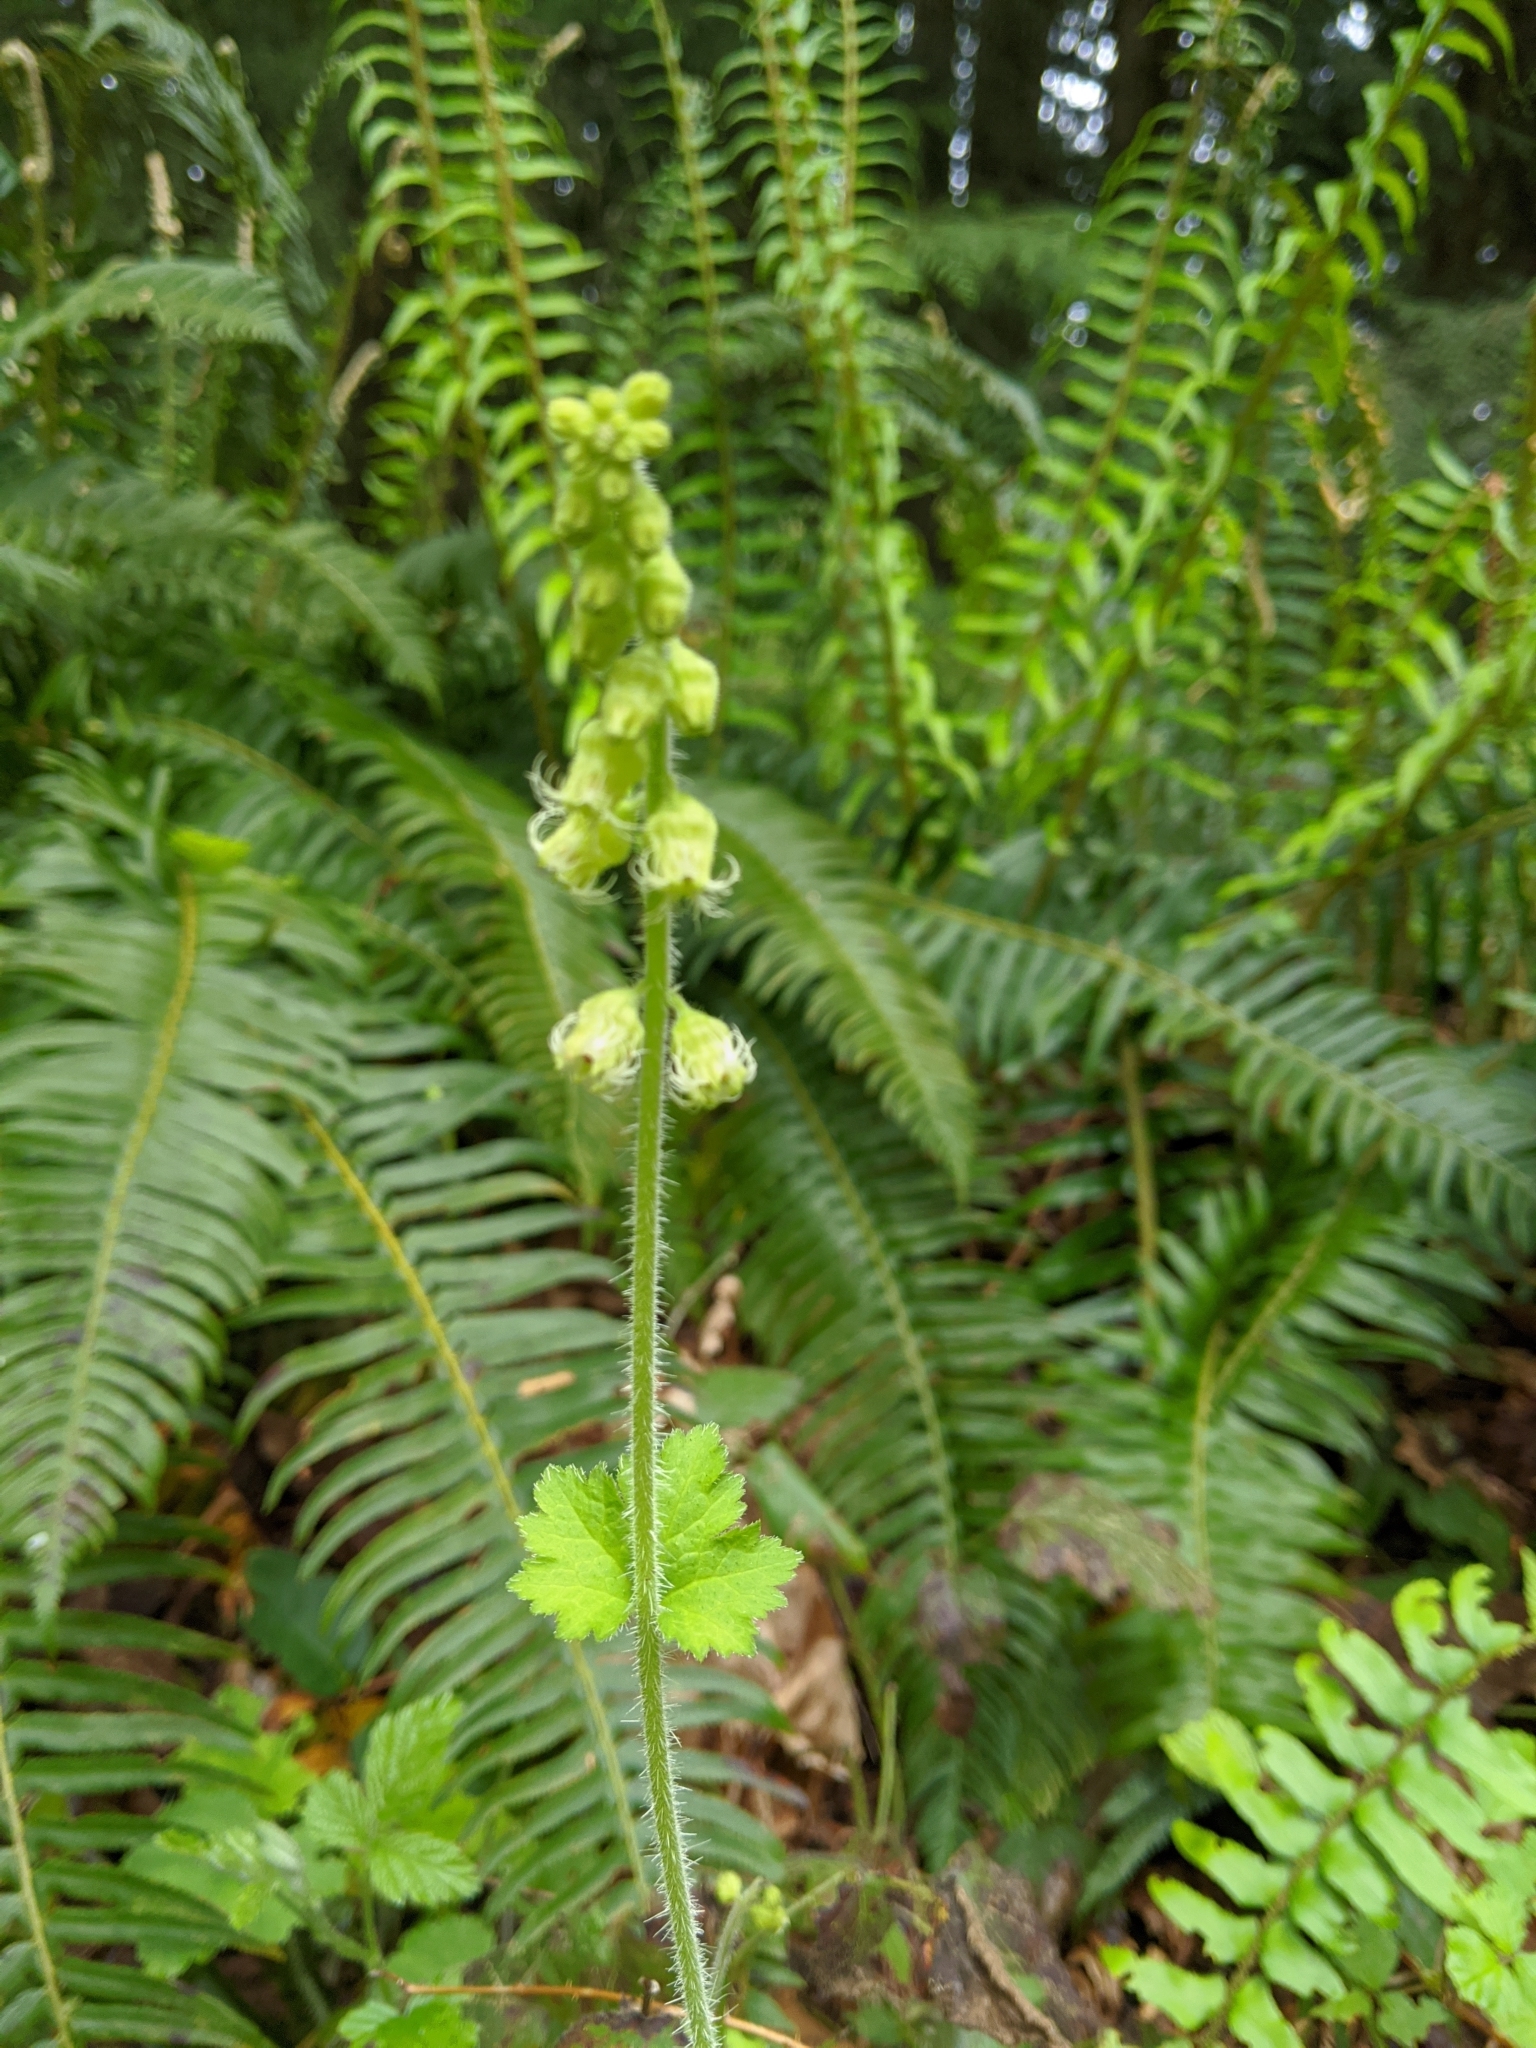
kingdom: Plantae
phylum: Tracheophyta
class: Magnoliopsida
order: Saxifragales
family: Saxifragaceae
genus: Tellima
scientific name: Tellima grandiflora
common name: Fringecups
